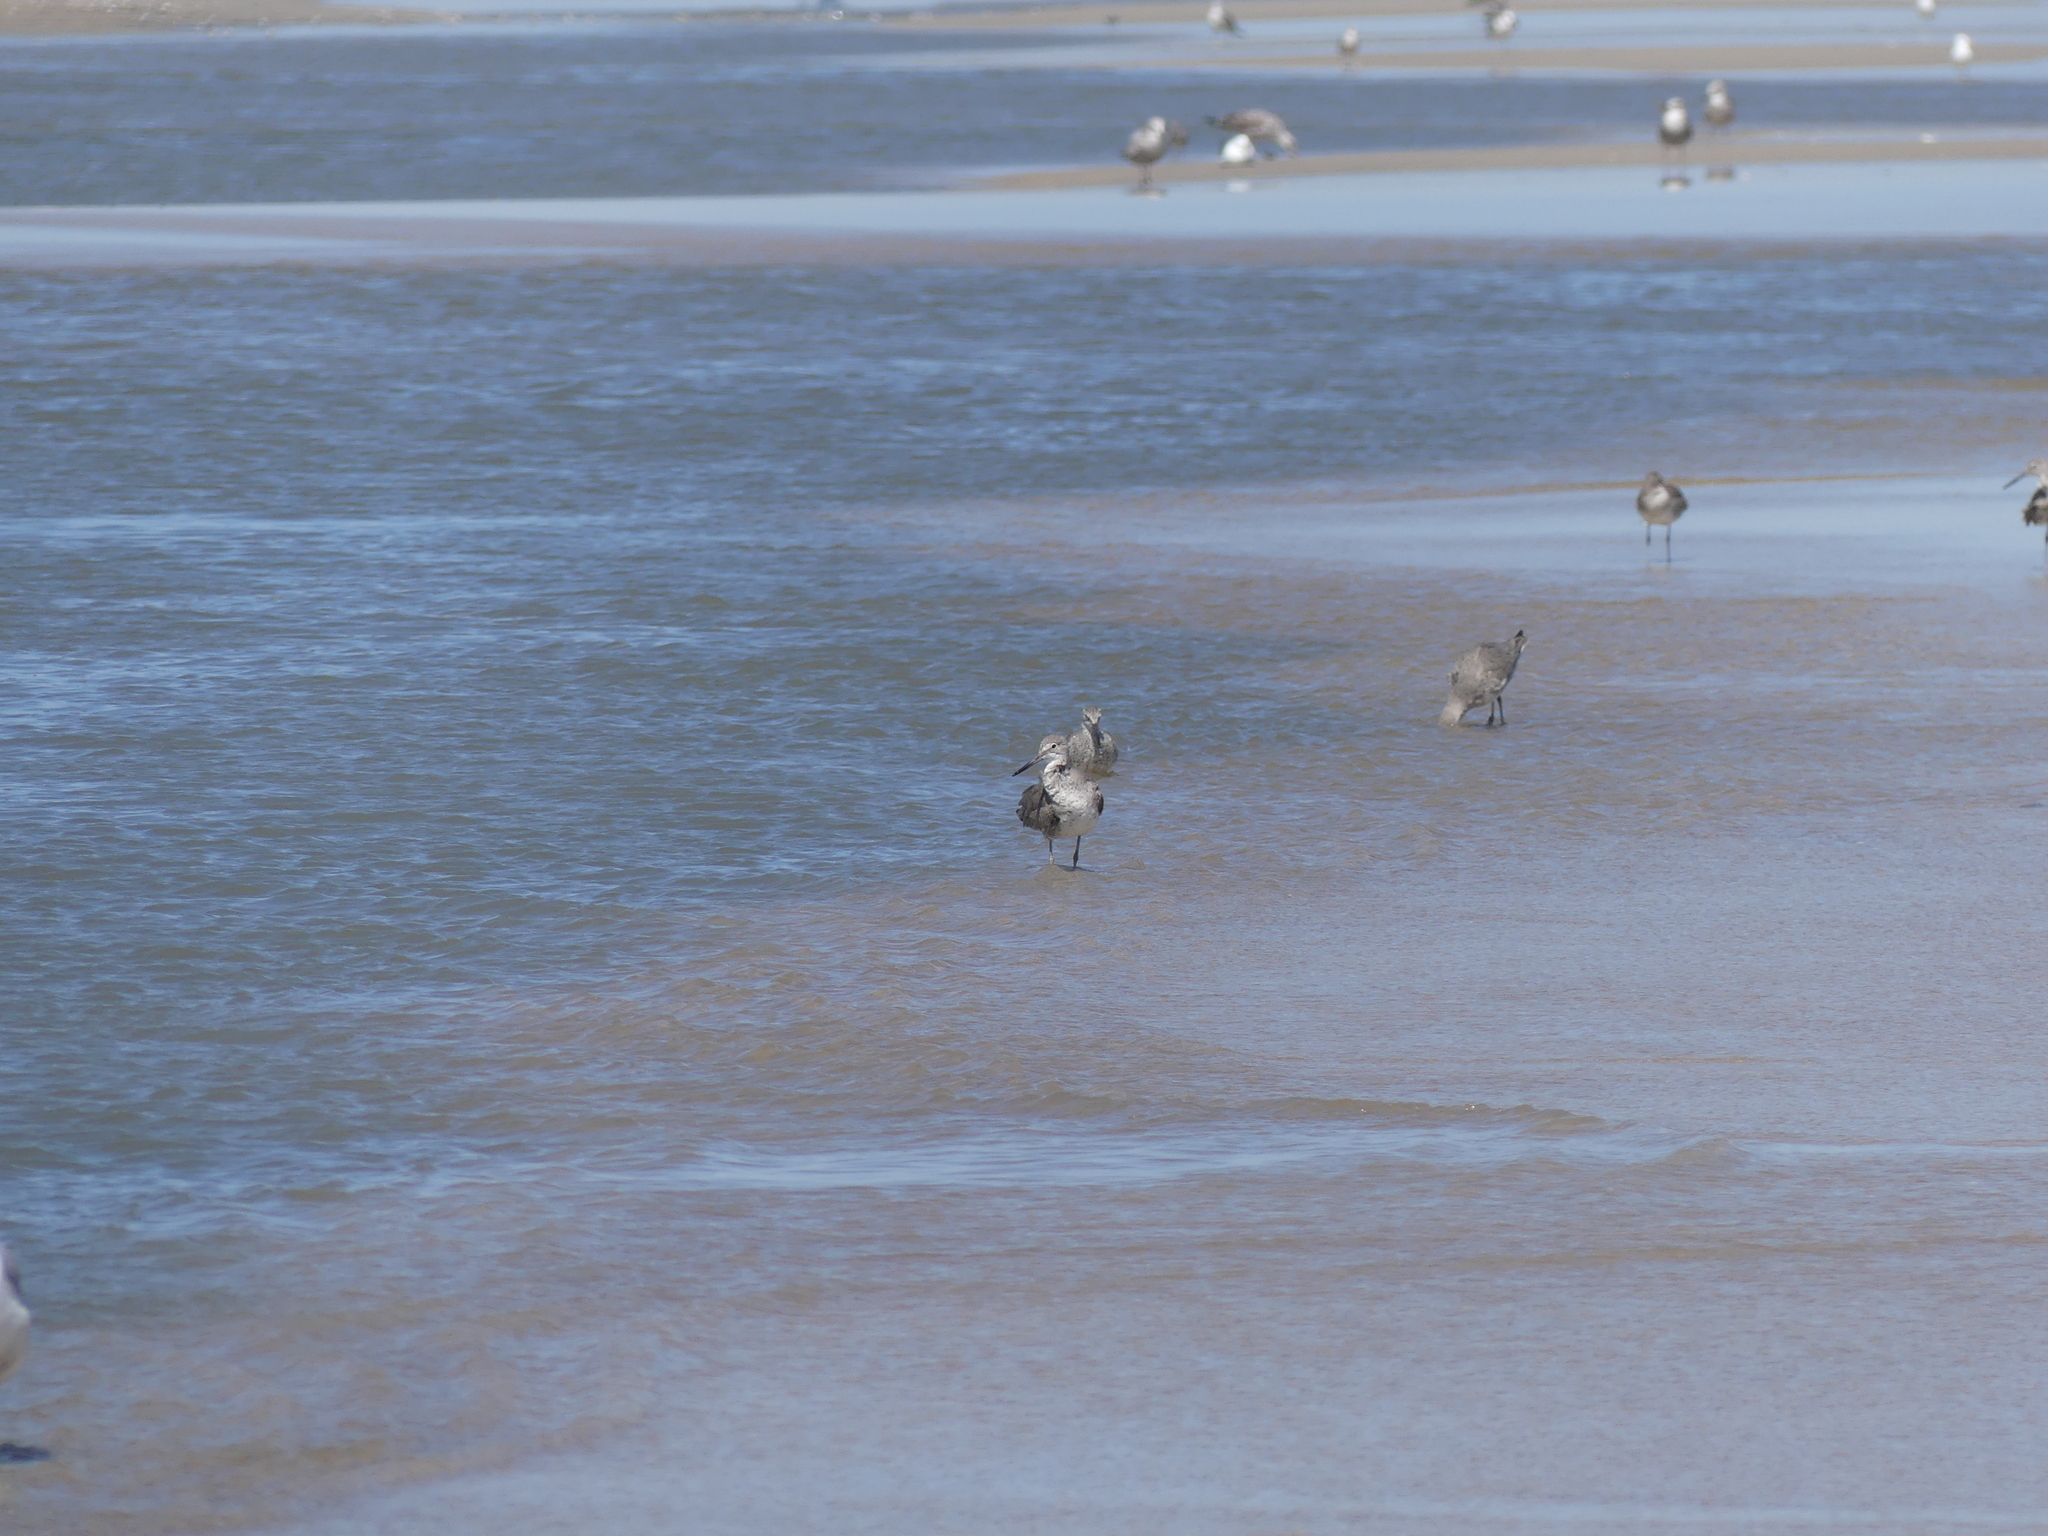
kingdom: Animalia
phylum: Chordata
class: Aves
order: Charadriiformes
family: Scolopacidae
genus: Tringa
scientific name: Tringa semipalmata
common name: Willet
